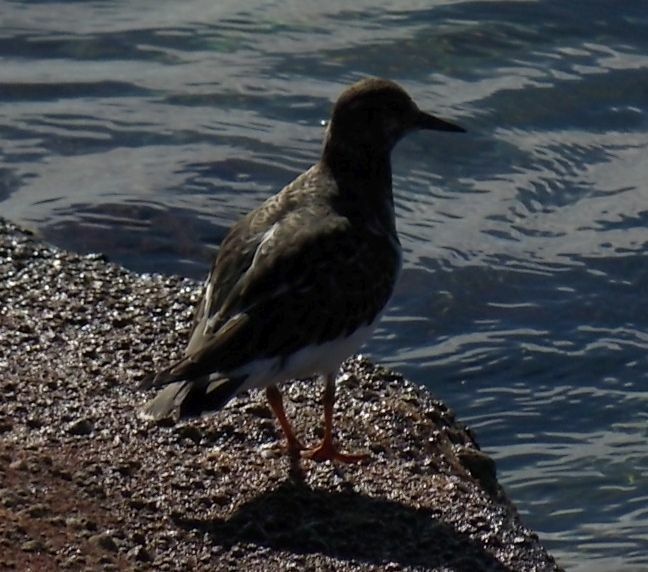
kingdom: Animalia
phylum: Chordata
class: Aves
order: Charadriiformes
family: Scolopacidae
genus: Arenaria
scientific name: Arenaria interpres
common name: Ruddy turnstone
